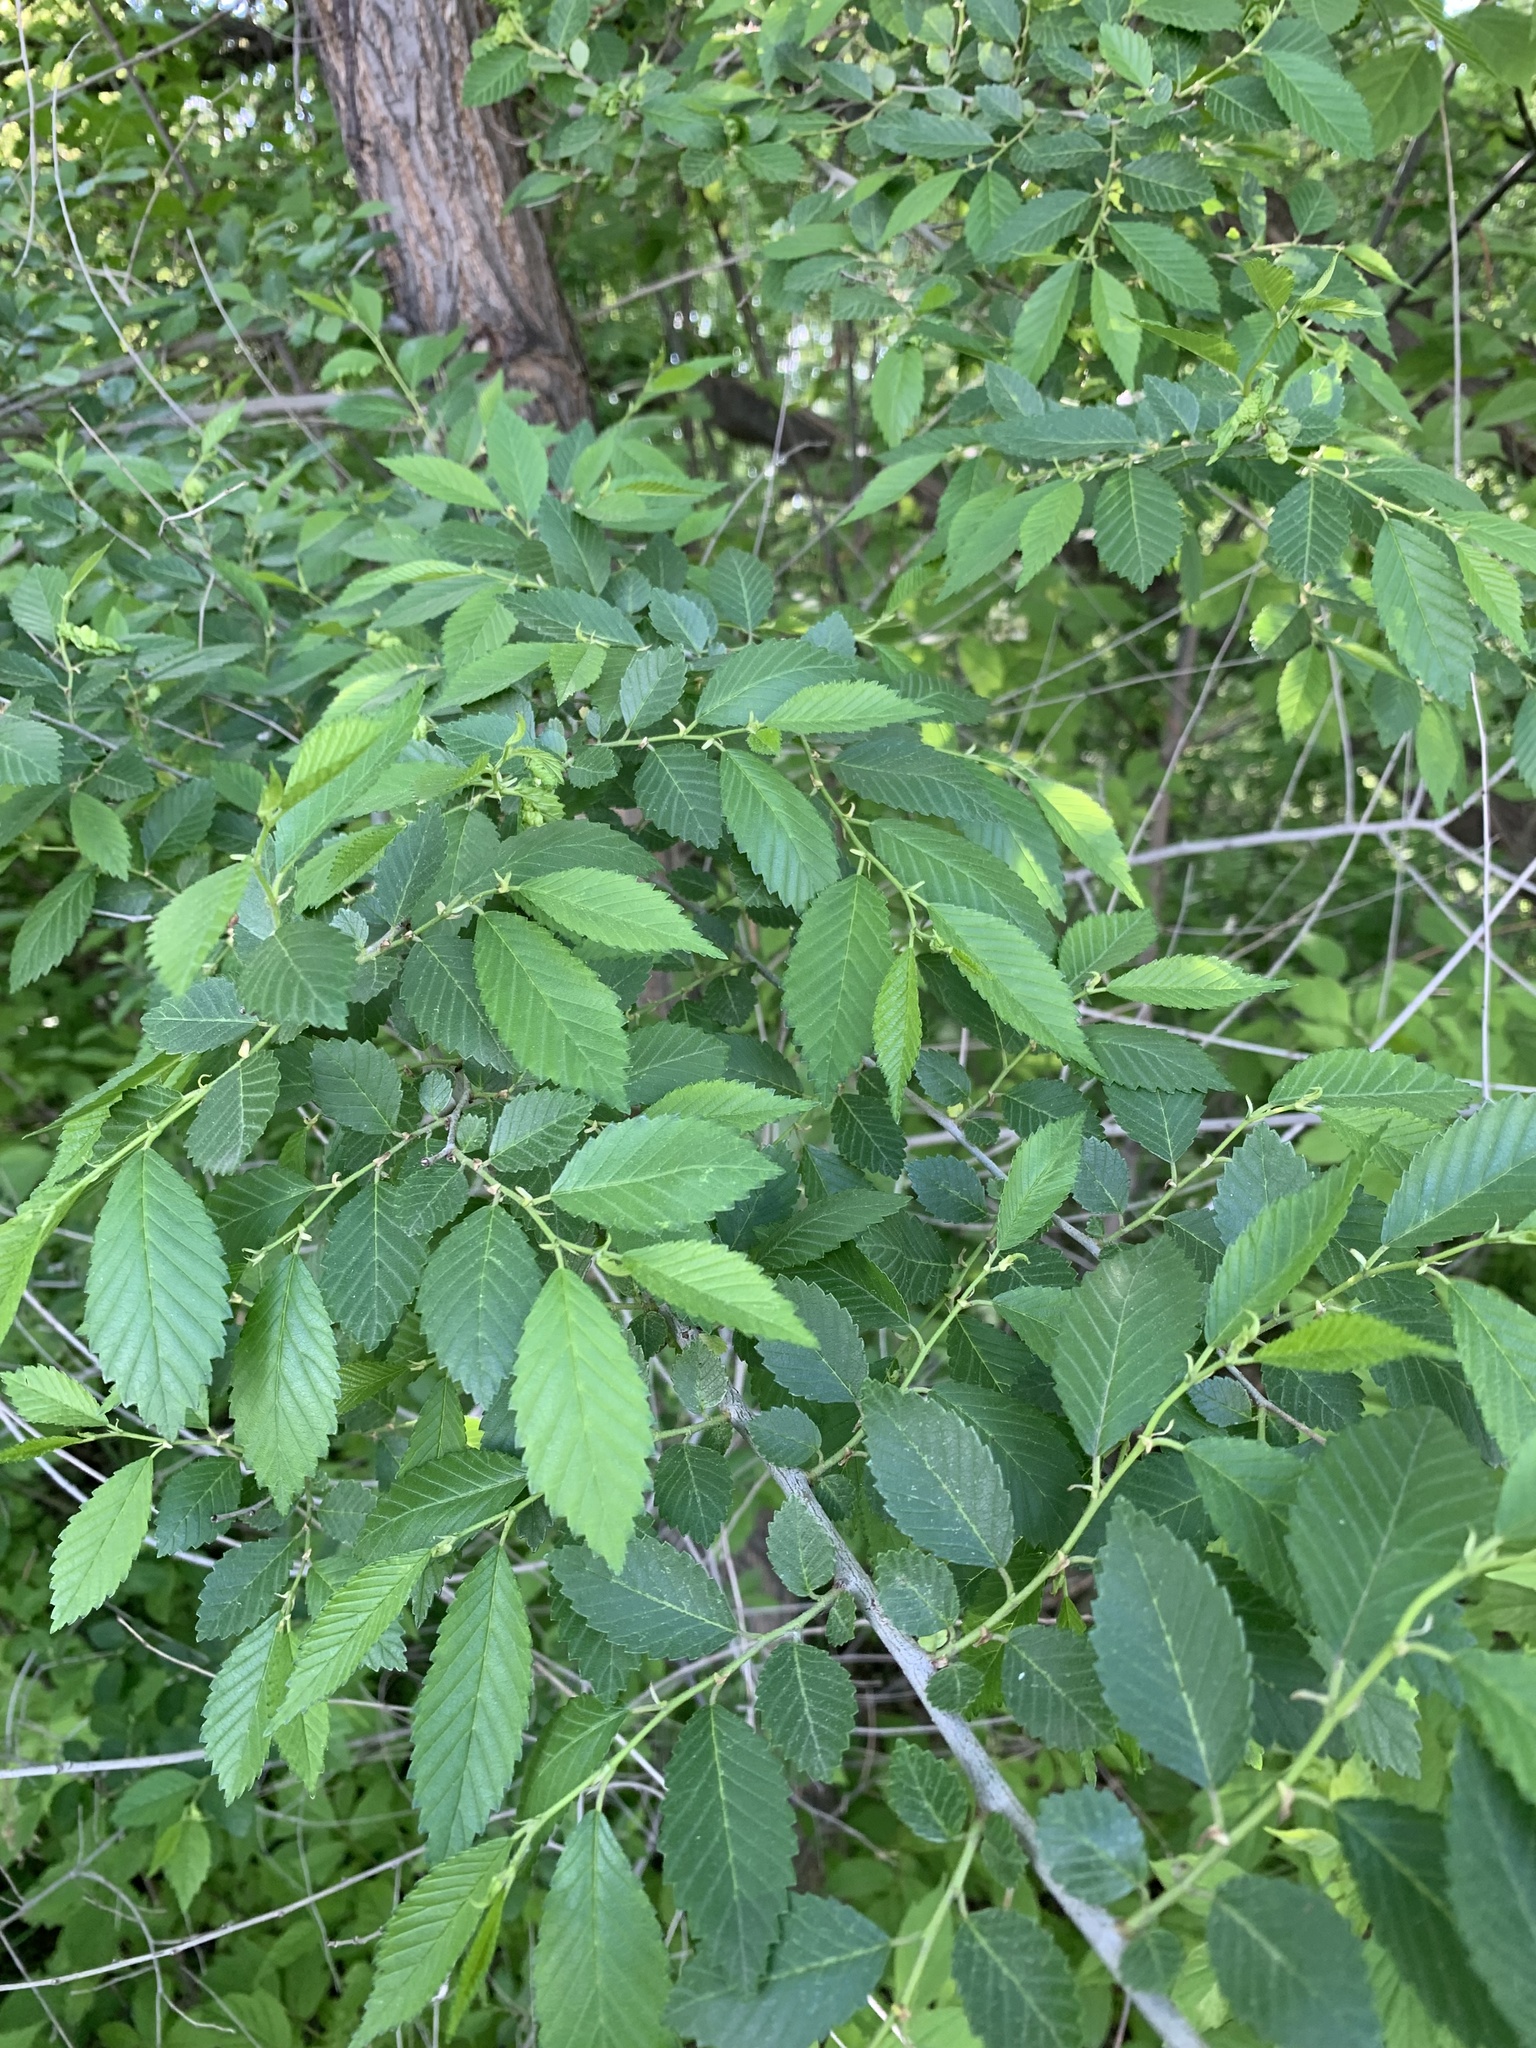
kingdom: Plantae
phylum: Tracheophyta
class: Magnoliopsida
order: Rosales
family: Ulmaceae
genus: Ulmus
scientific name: Ulmus pumila
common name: Siberian elm
